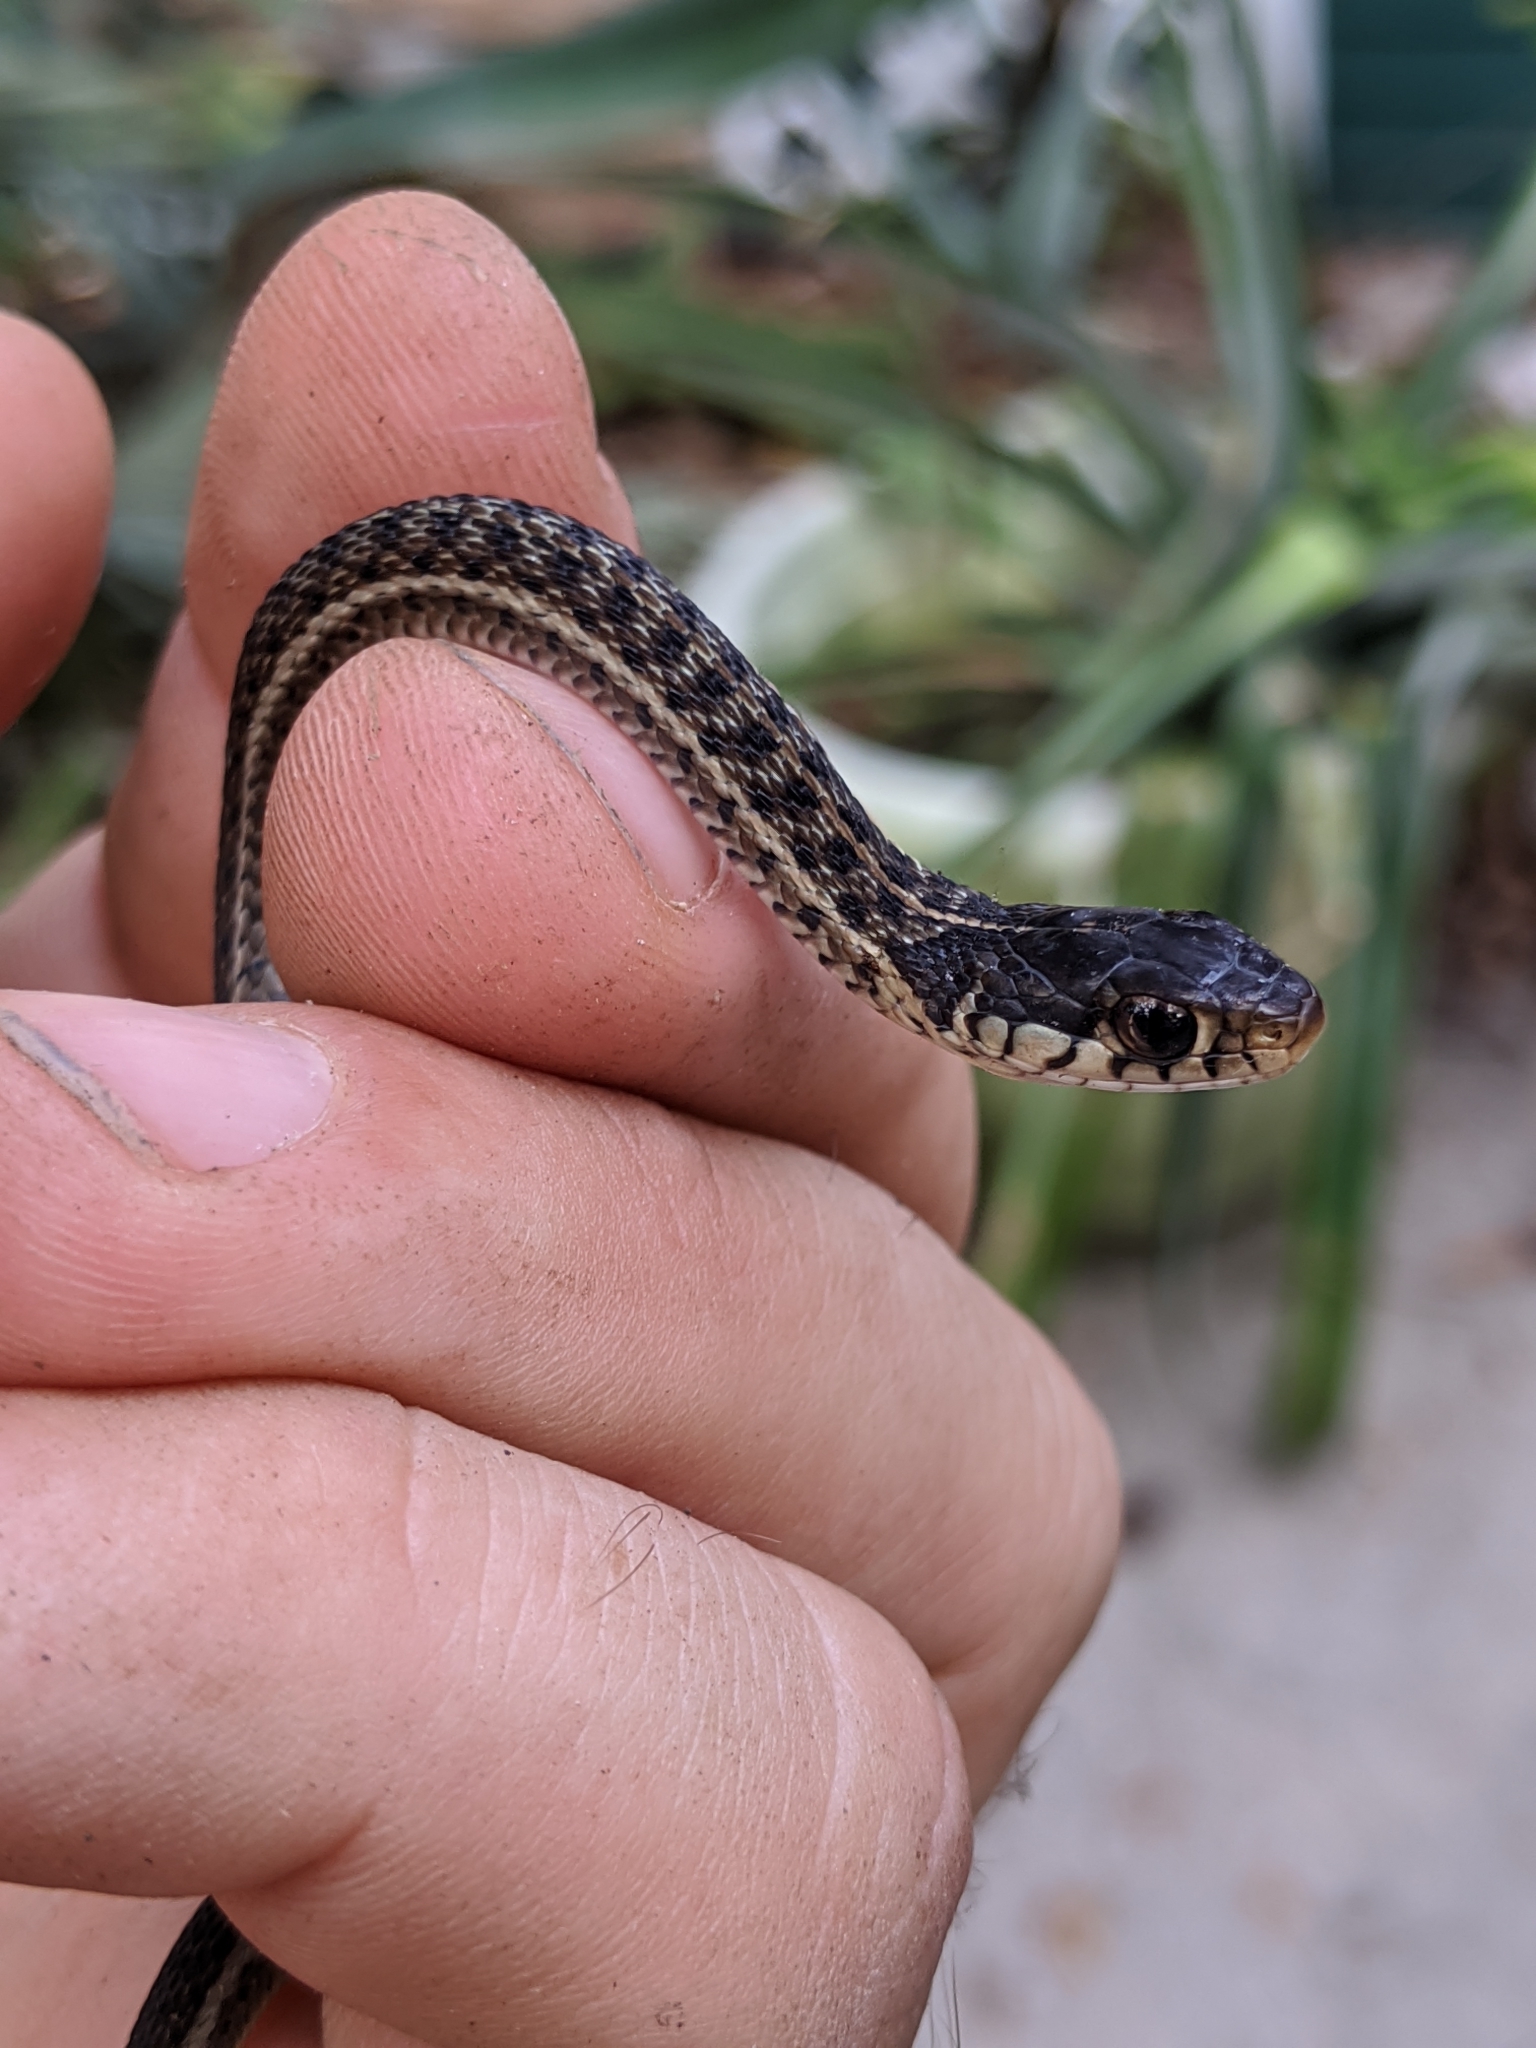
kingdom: Animalia
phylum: Chordata
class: Squamata
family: Colubridae
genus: Thamnophis
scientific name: Thamnophis sirtalis
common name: Common garter snake
